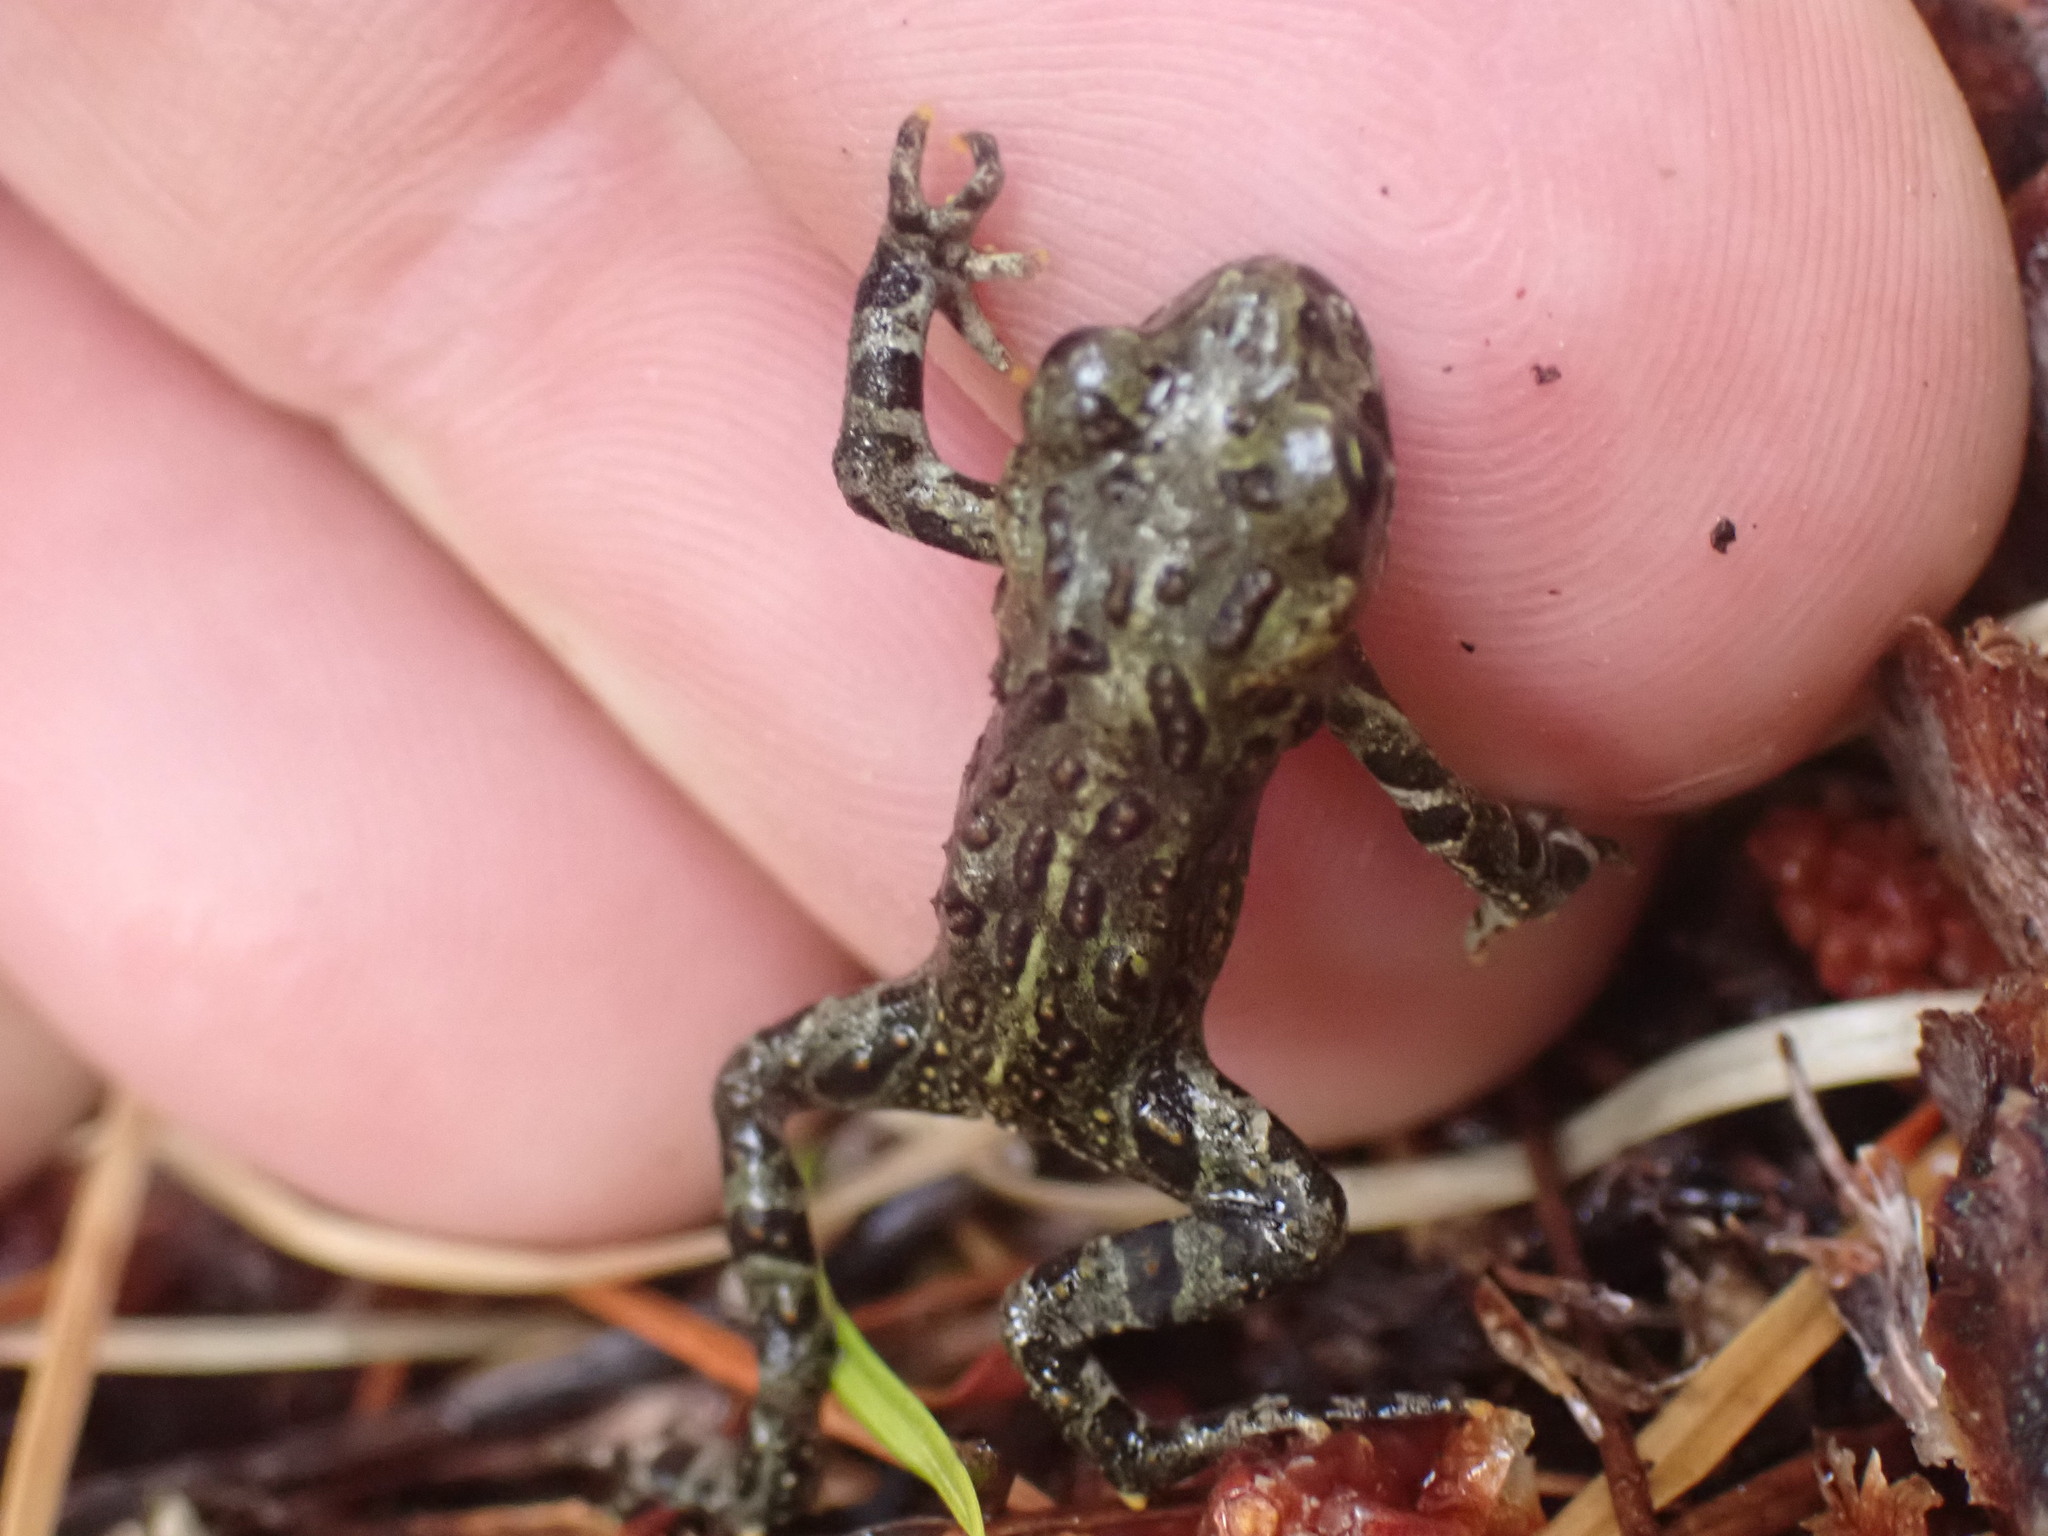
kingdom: Animalia
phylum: Chordata
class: Amphibia
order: Anura
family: Bufonidae
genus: Anaxyrus
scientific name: Anaxyrus boreas
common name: Western toad
